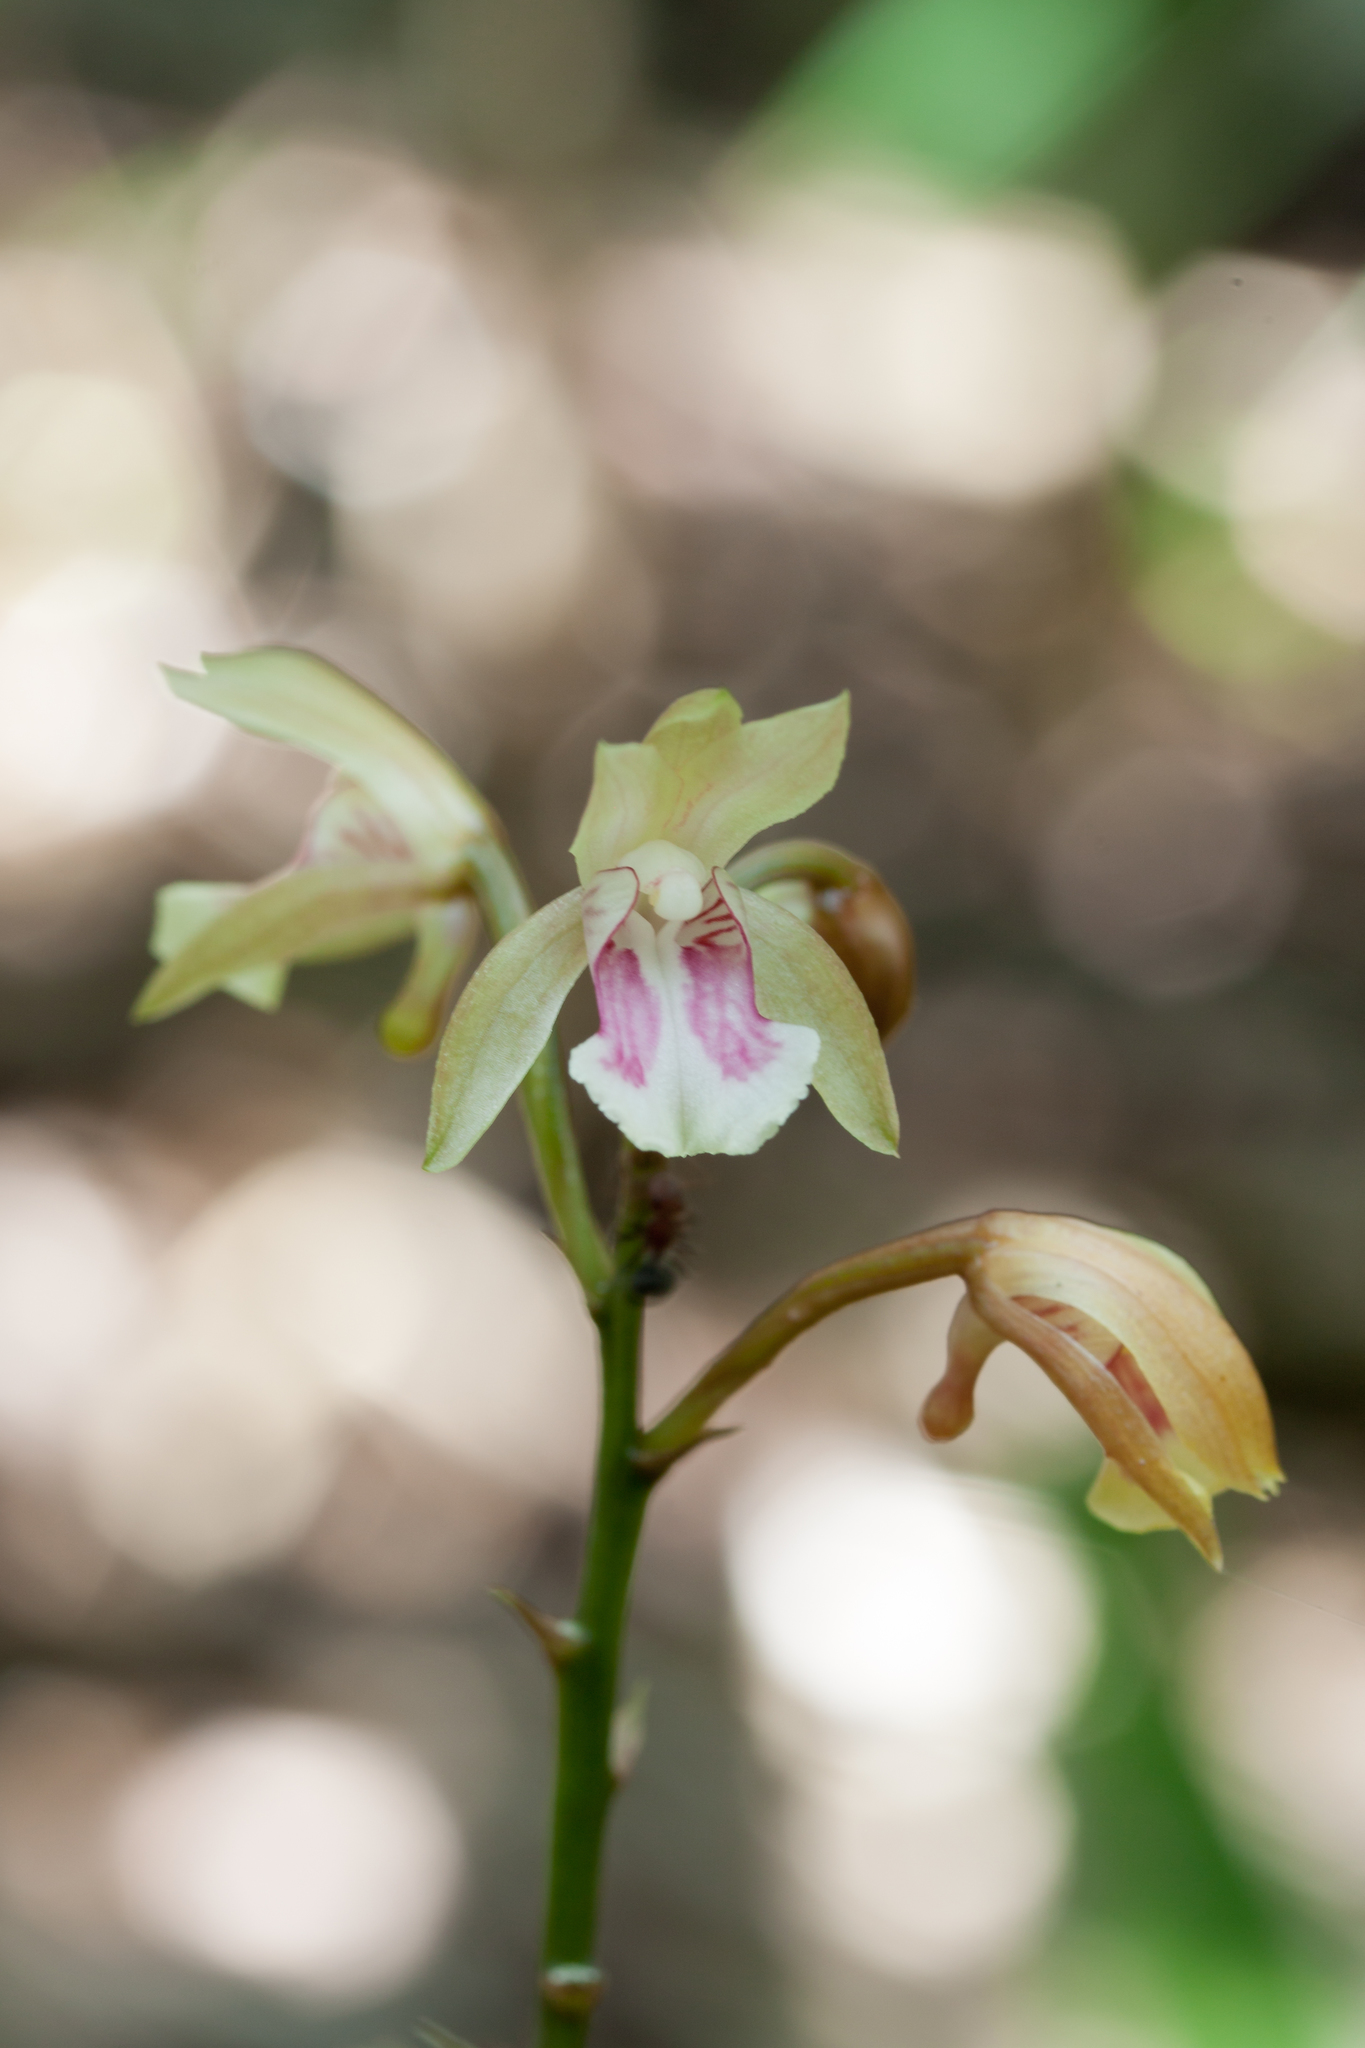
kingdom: Plantae
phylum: Tracheophyta
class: Liliopsida
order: Asparagales
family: Orchidaceae
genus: Eulophia
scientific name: Eulophia maculata
